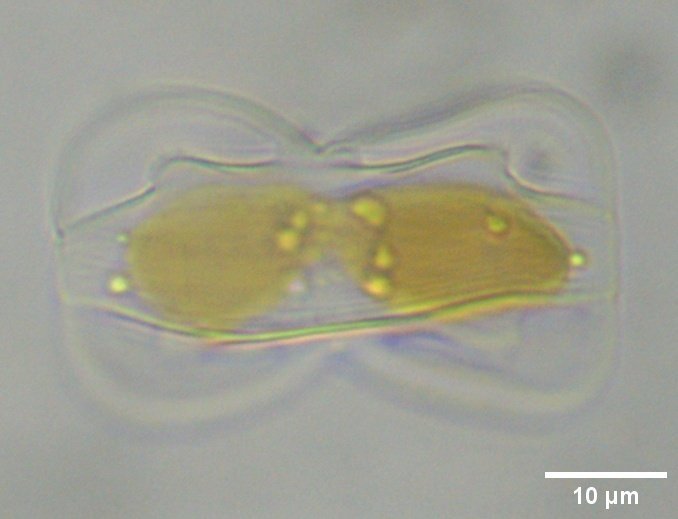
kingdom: Chromista
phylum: Ochrophyta
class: Bacillariophyceae
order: Surirellales
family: Entomoneidaceae
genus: Entomoneis
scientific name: Entomoneis paludosa
